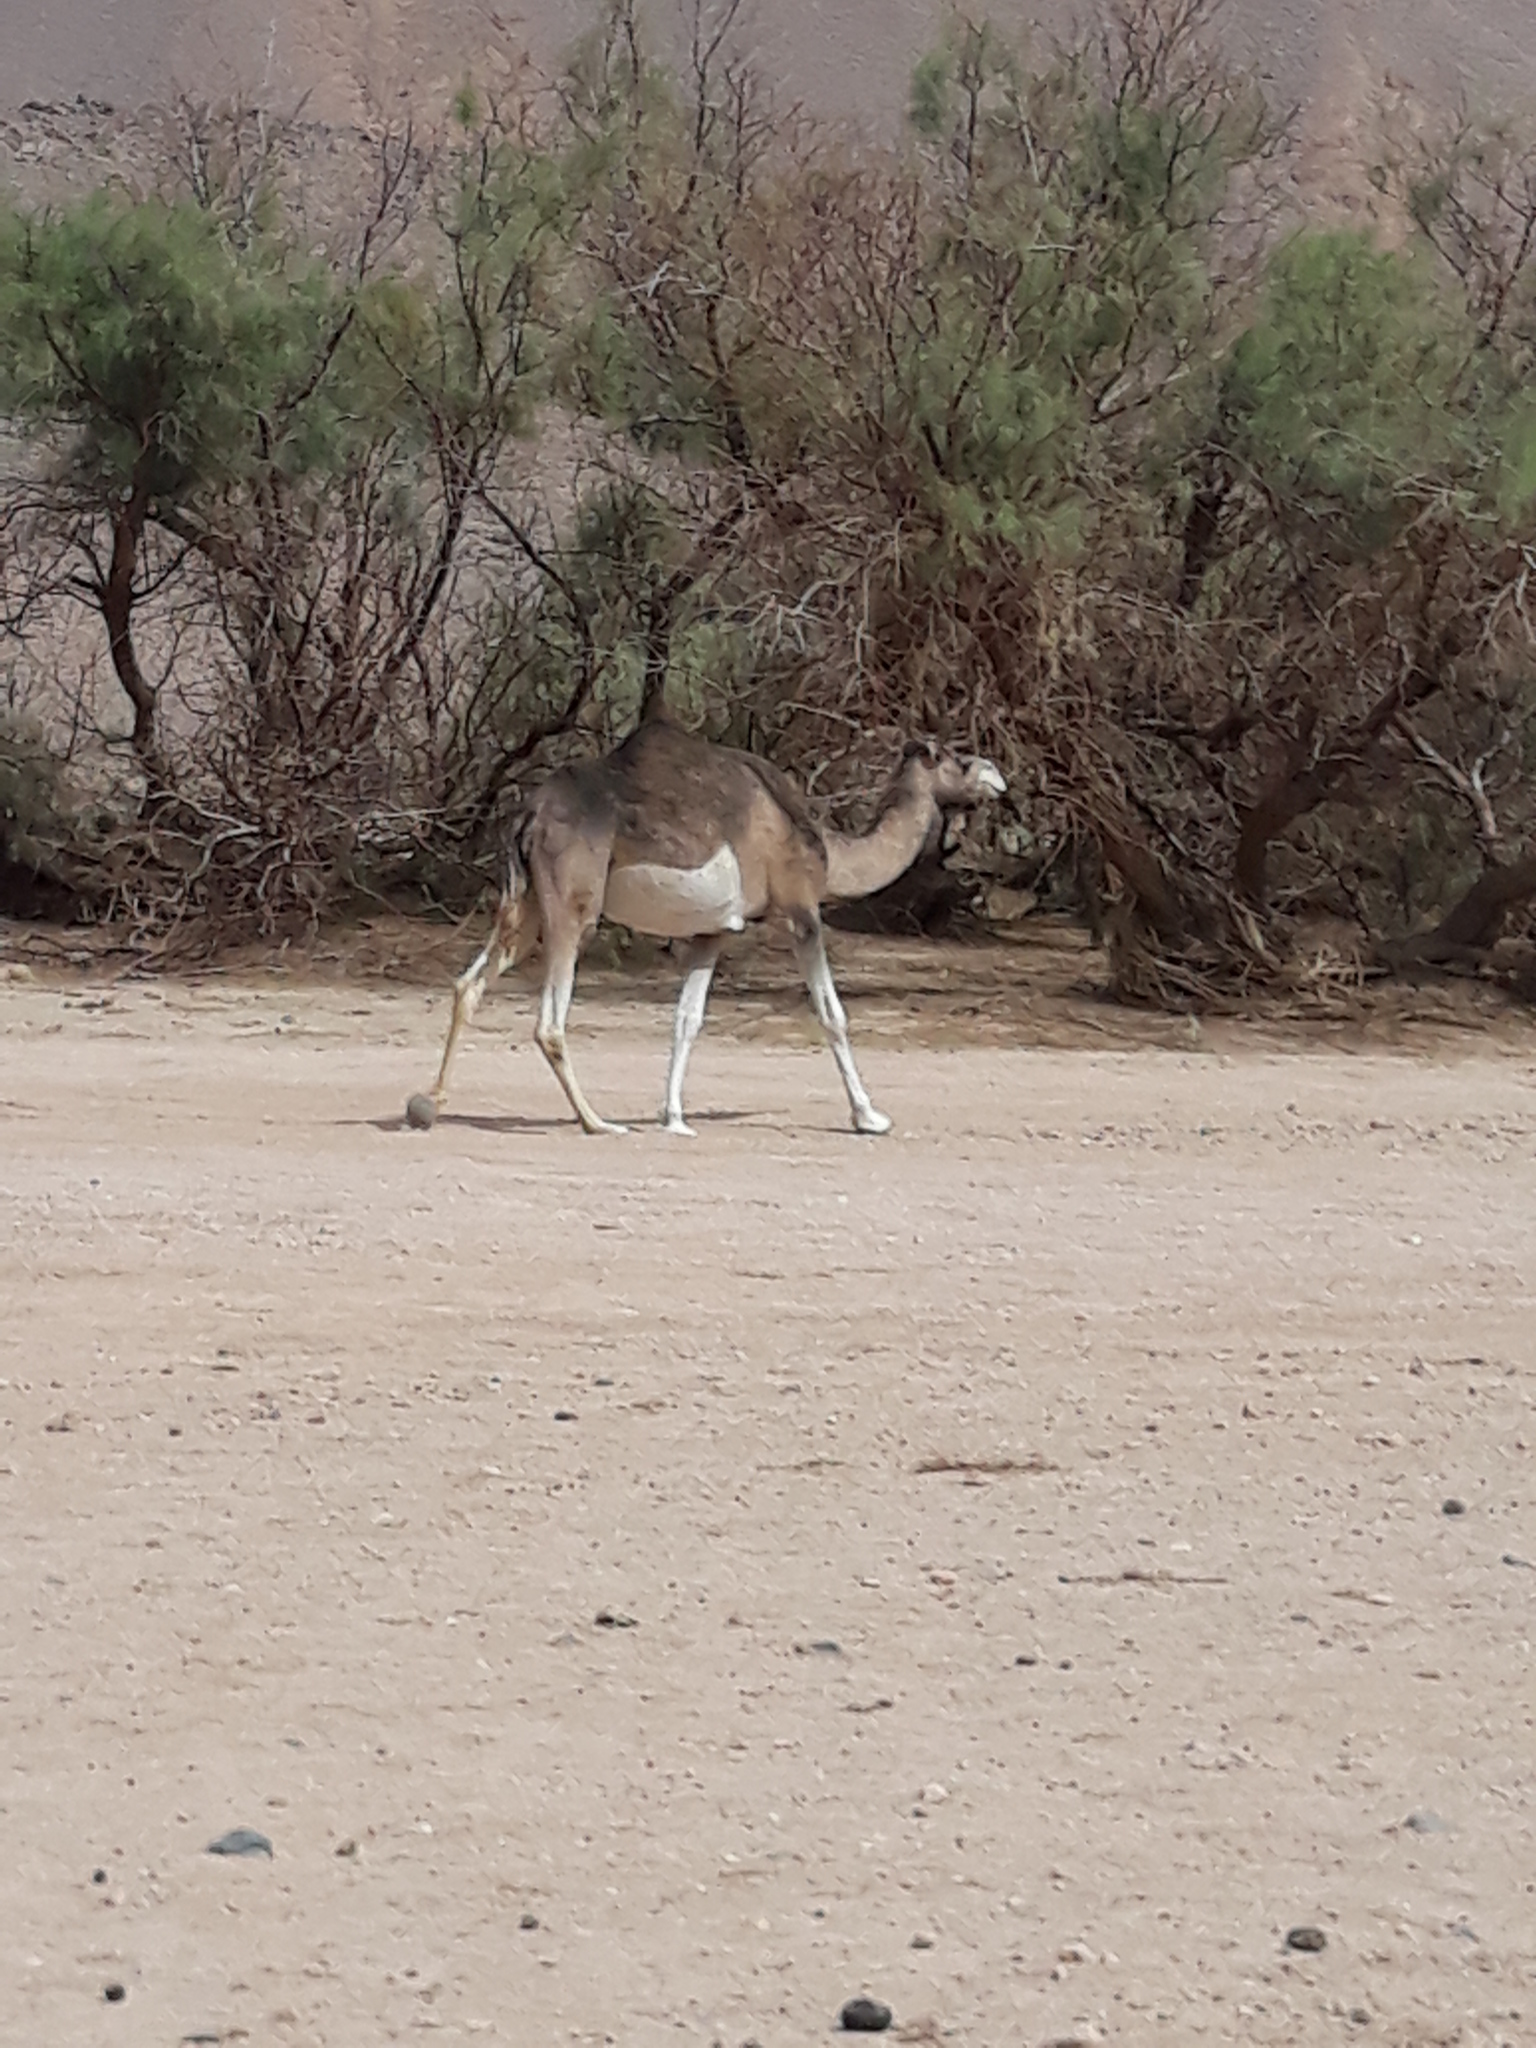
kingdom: Animalia
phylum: Chordata
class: Mammalia
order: Artiodactyla
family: Camelidae
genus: Camelus
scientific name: Camelus dromedarius
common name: One-humped camel
